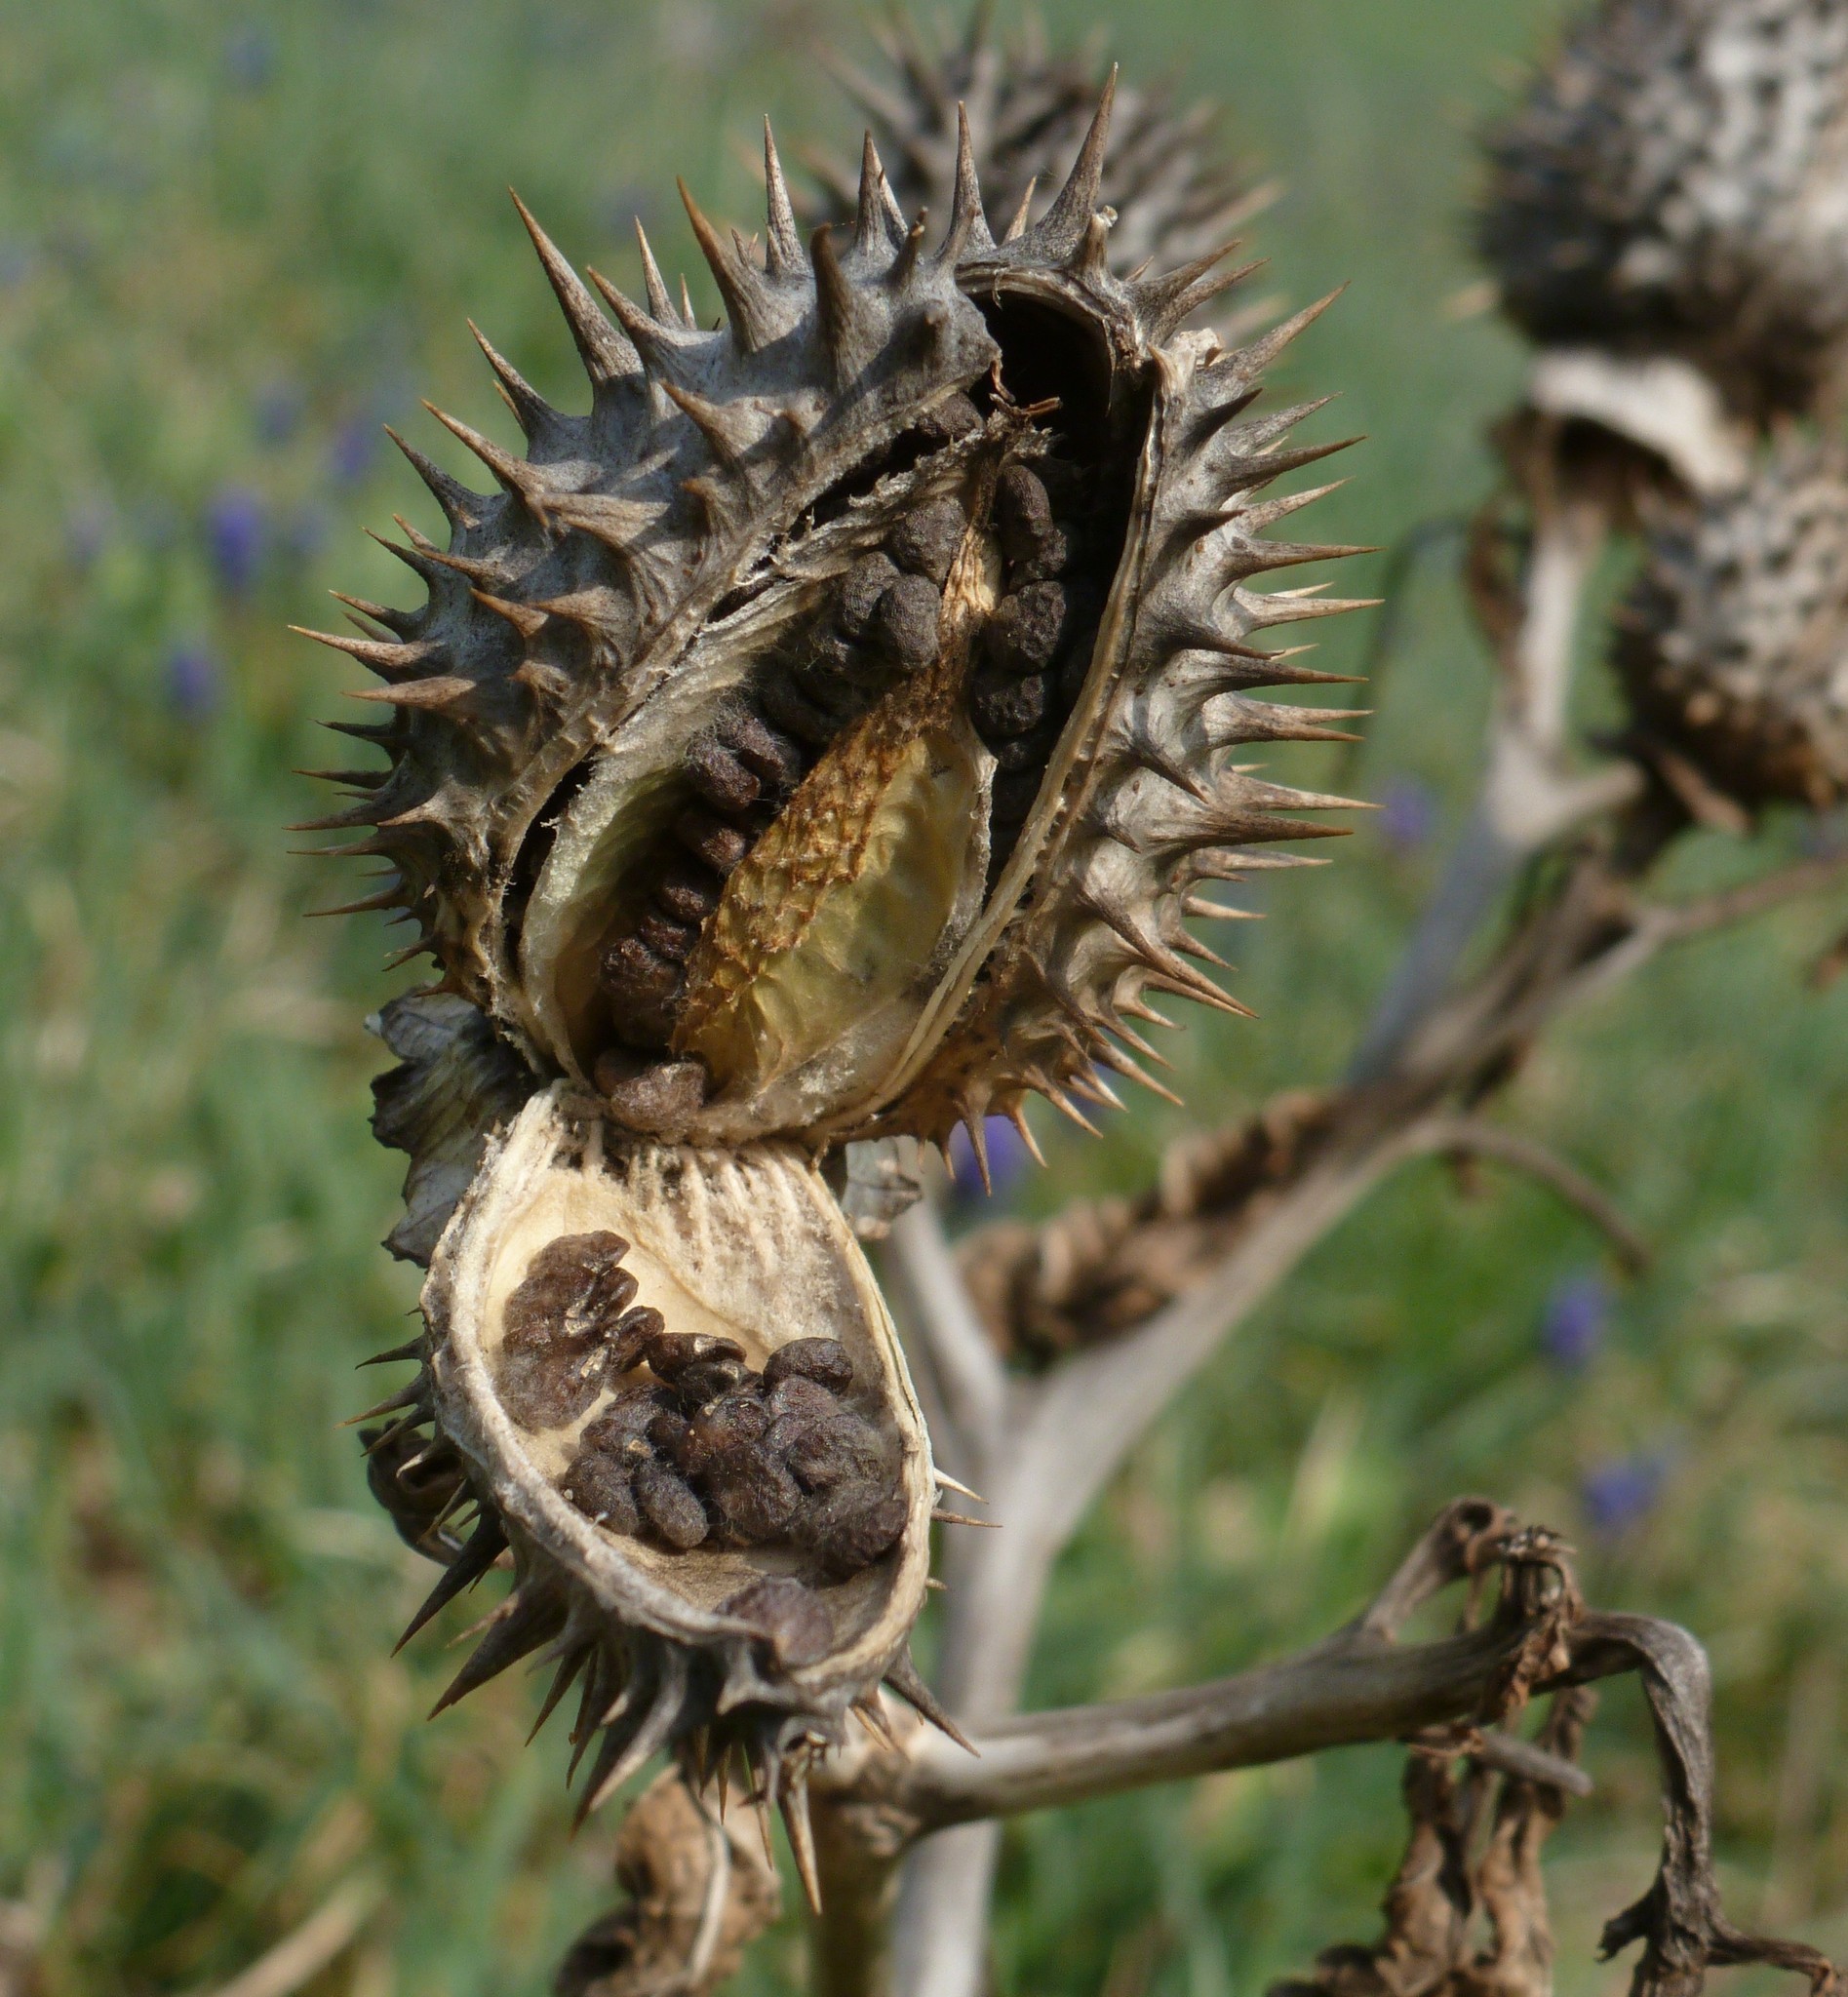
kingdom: Plantae
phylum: Tracheophyta
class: Magnoliopsida
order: Solanales
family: Solanaceae
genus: Datura
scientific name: Datura stramonium
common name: Thorn-apple
